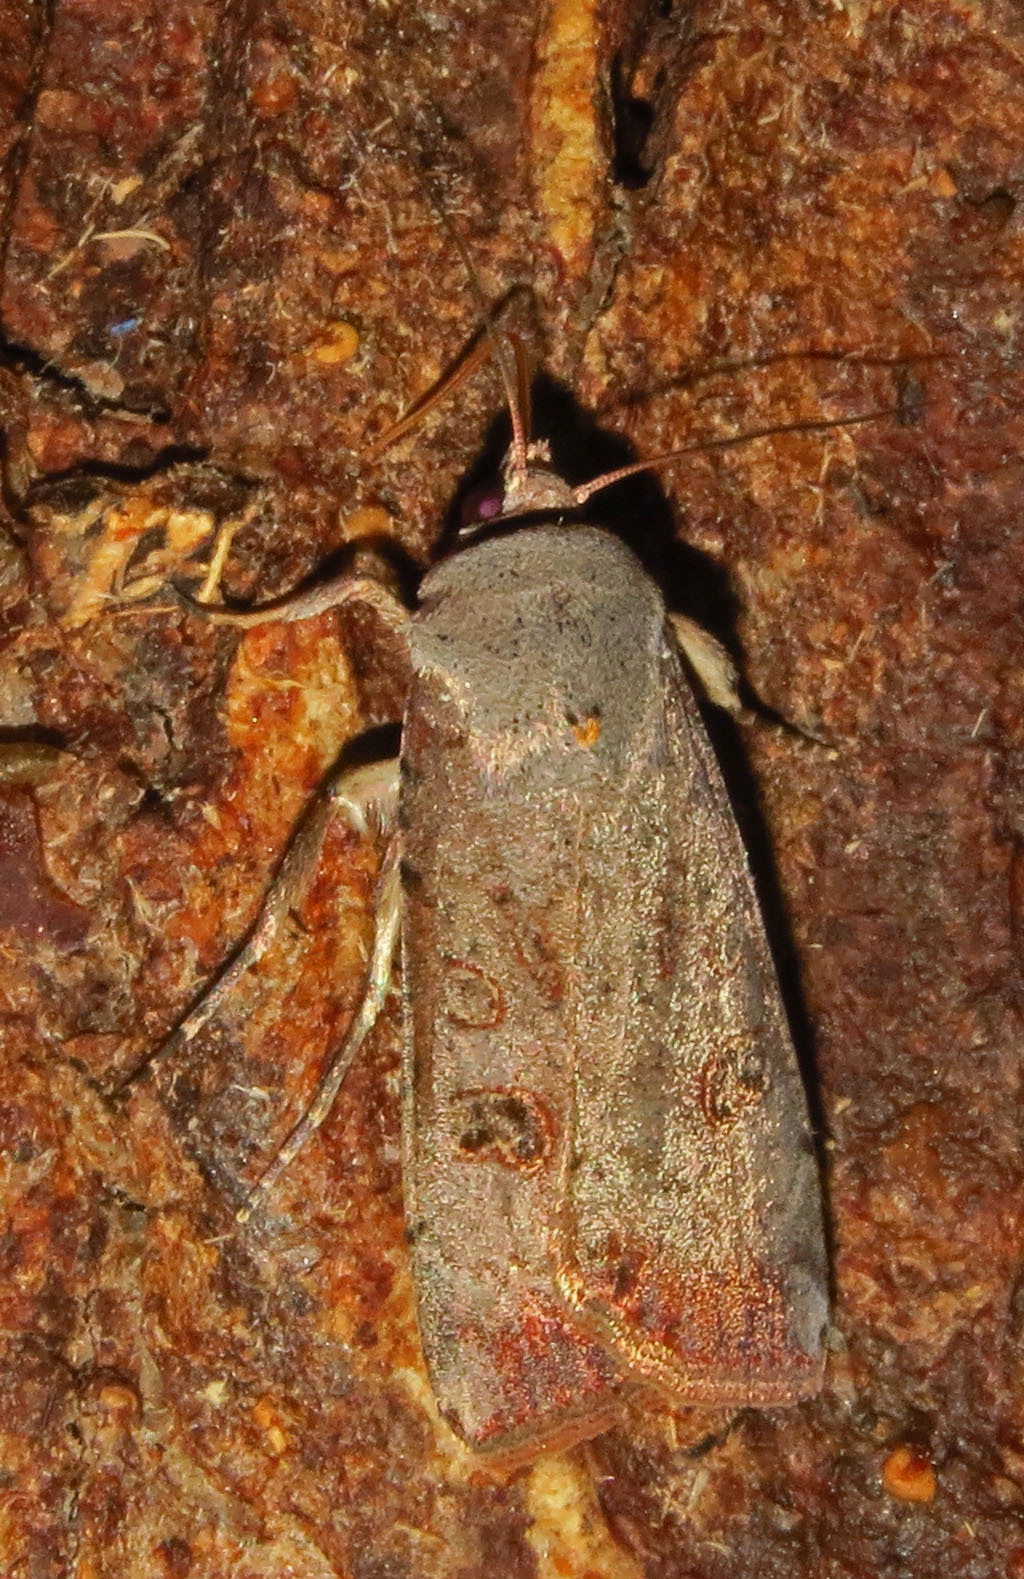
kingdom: Animalia
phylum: Arthropoda
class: Insecta
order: Lepidoptera
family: Noctuidae
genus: Anicla
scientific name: Anicla infecta
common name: Green cutworm
